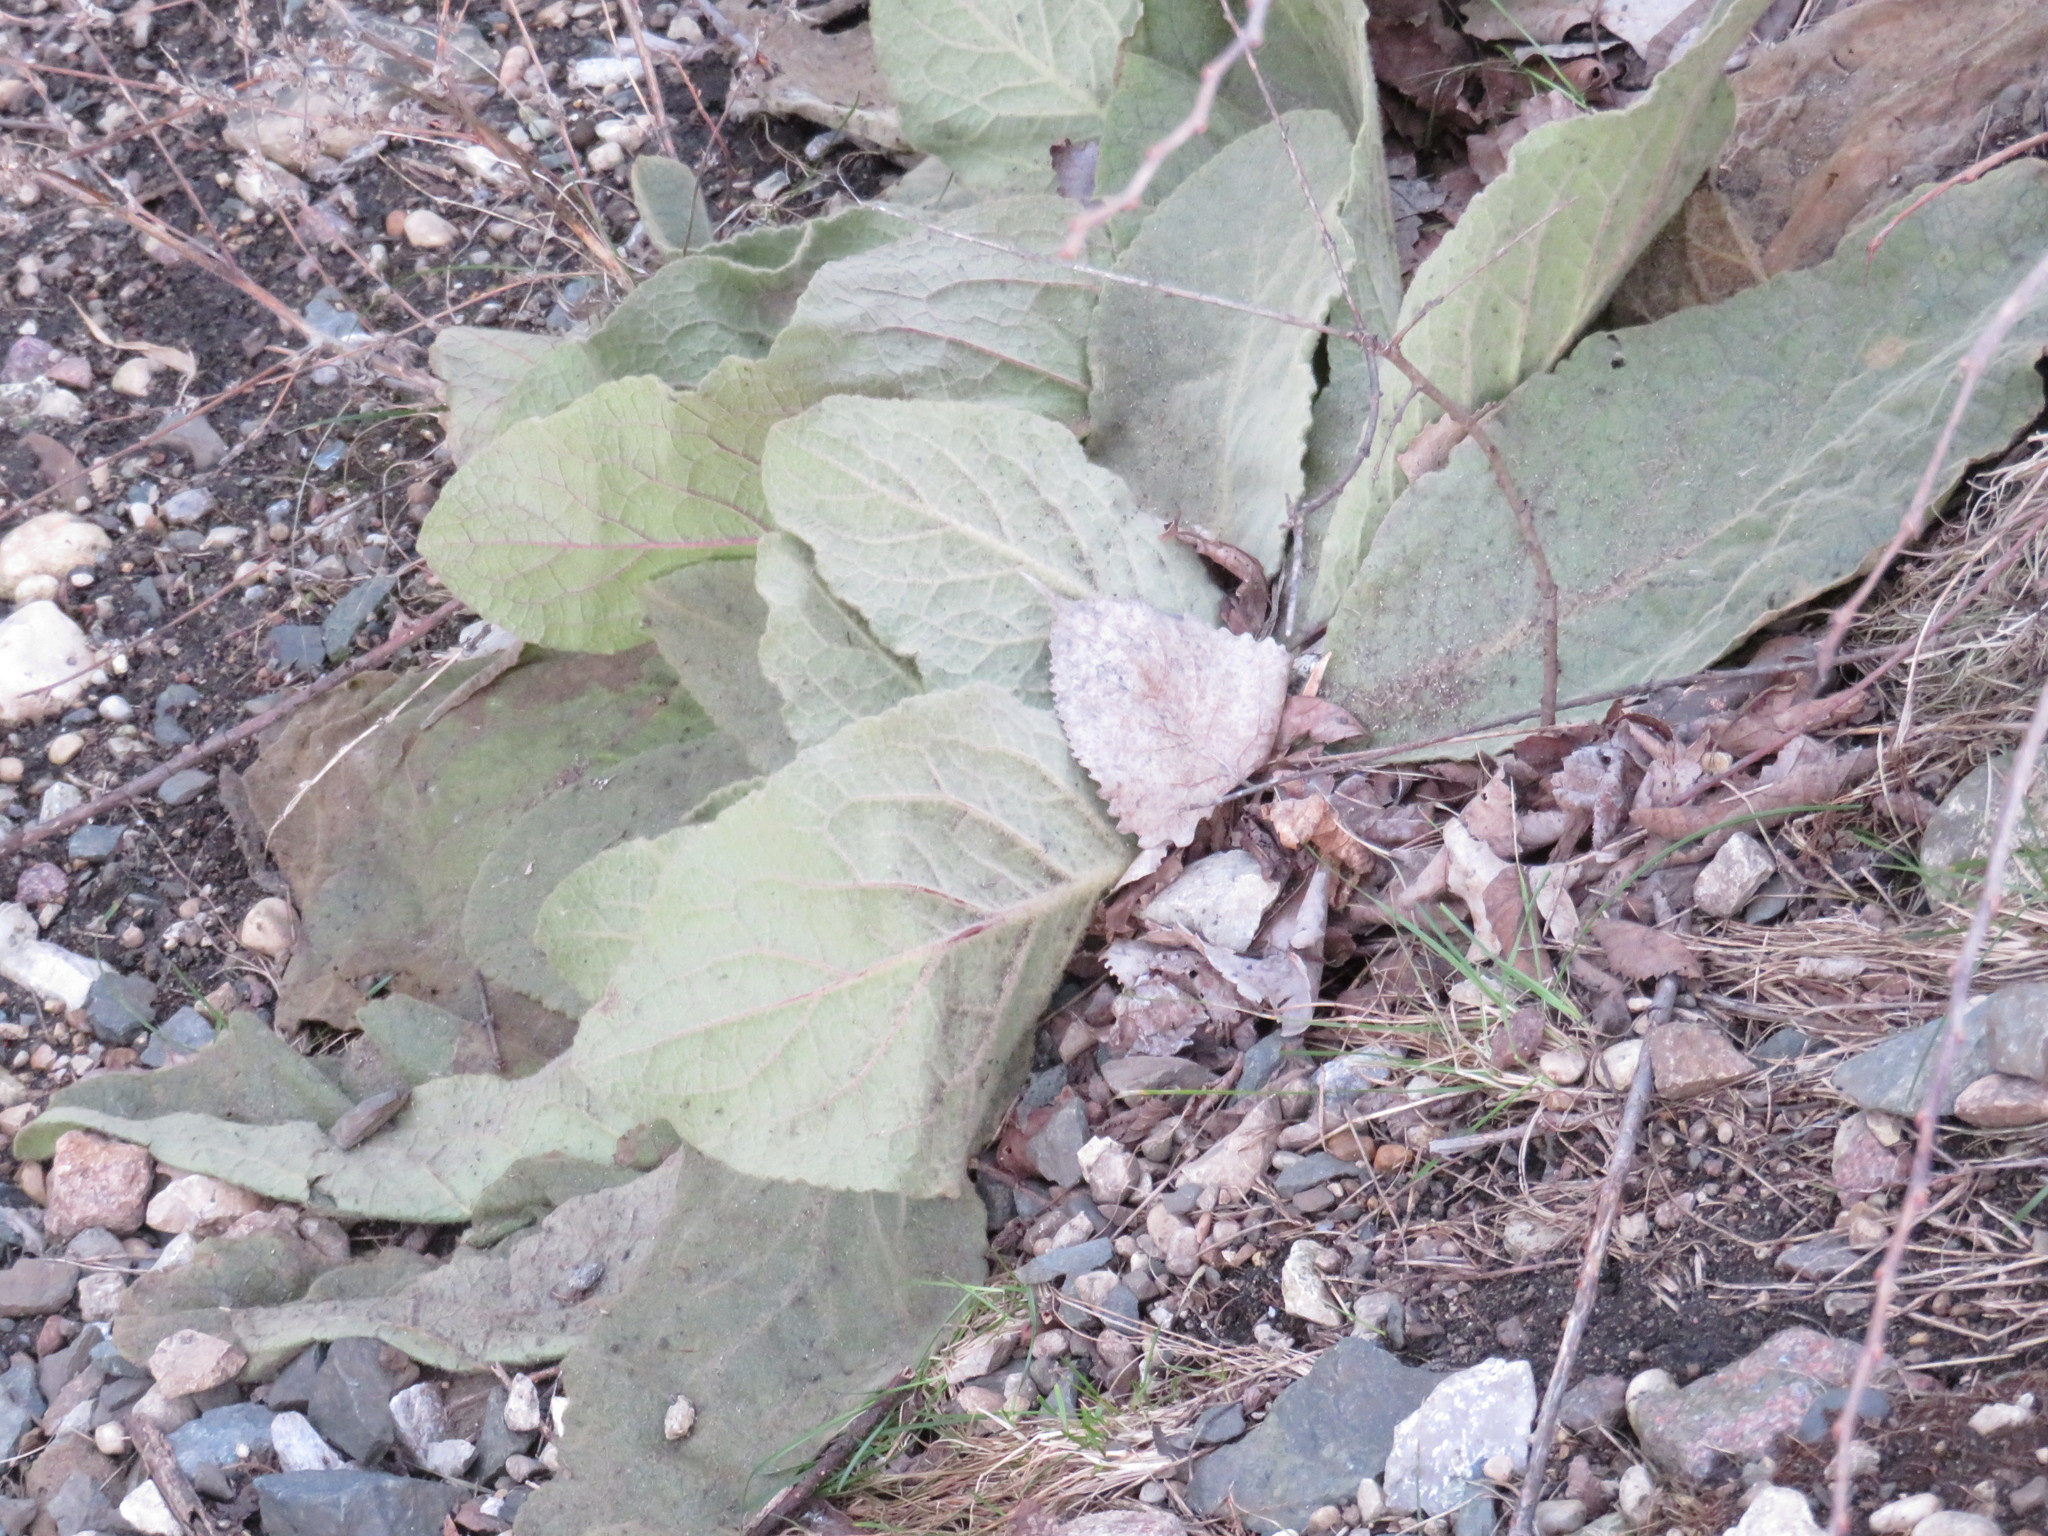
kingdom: Plantae
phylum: Tracheophyta
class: Magnoliopsida
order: Lamiales
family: Scrophulariaceae
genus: Verbascum
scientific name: Verbascum thapsus
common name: Common mullein
